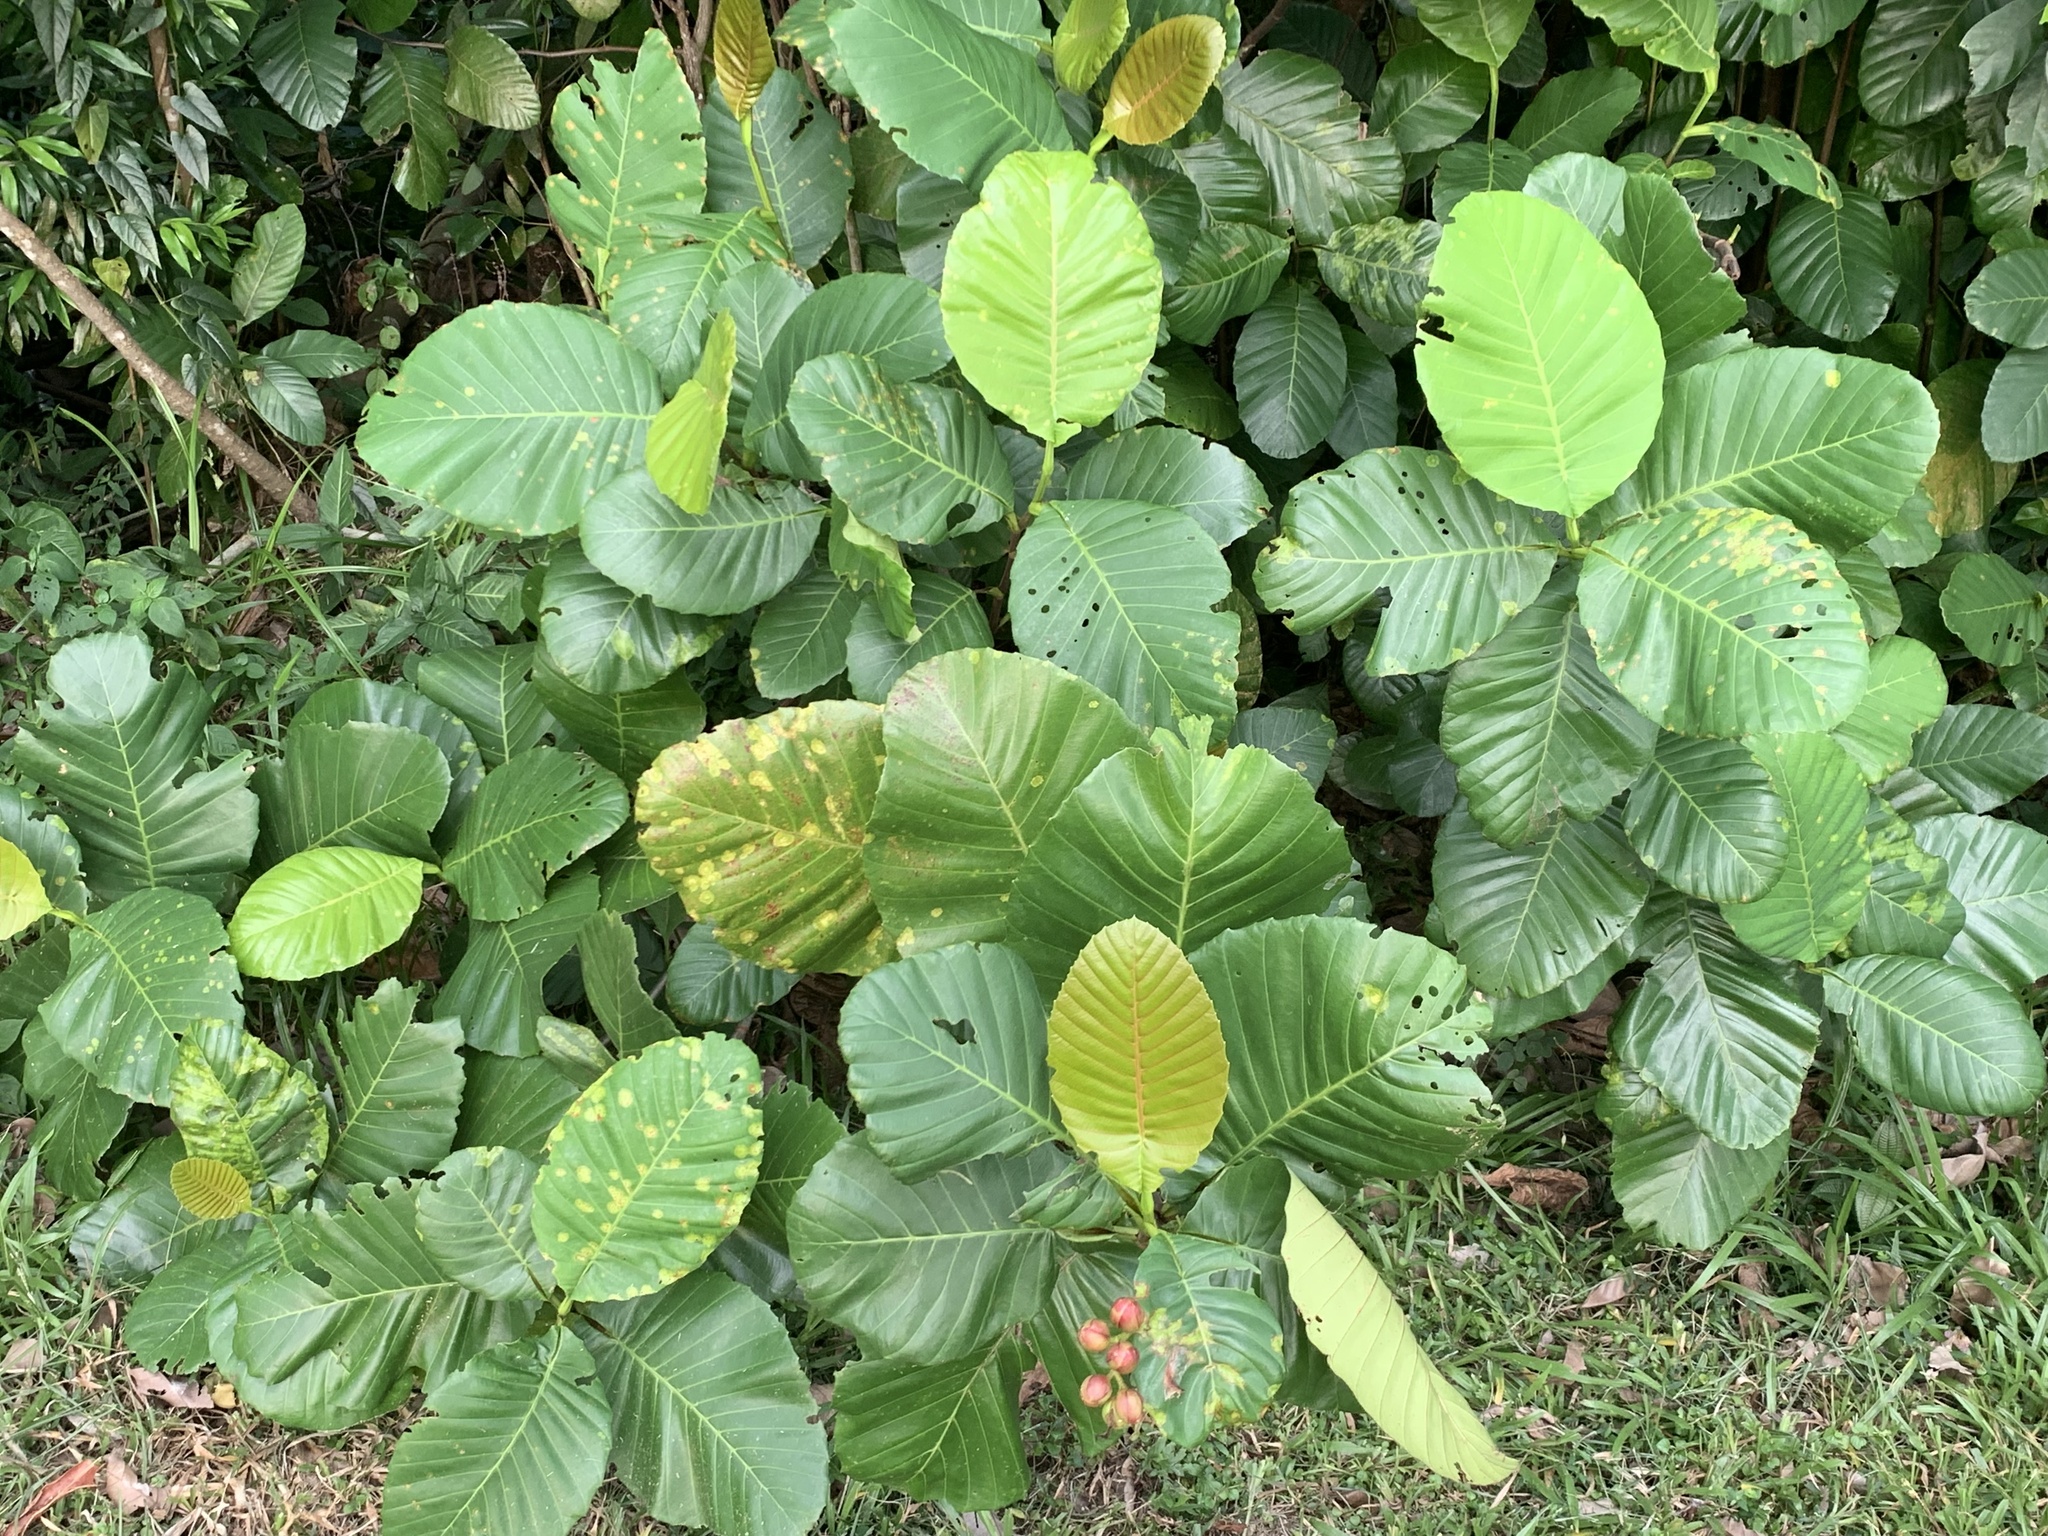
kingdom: Plantae
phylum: Tracheophyta
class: Magnoliopsida
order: Dilleniales
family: Dilleniaceae
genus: Dillenia
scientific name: Dillenia suffruticosa
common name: Shrubby dillenia
